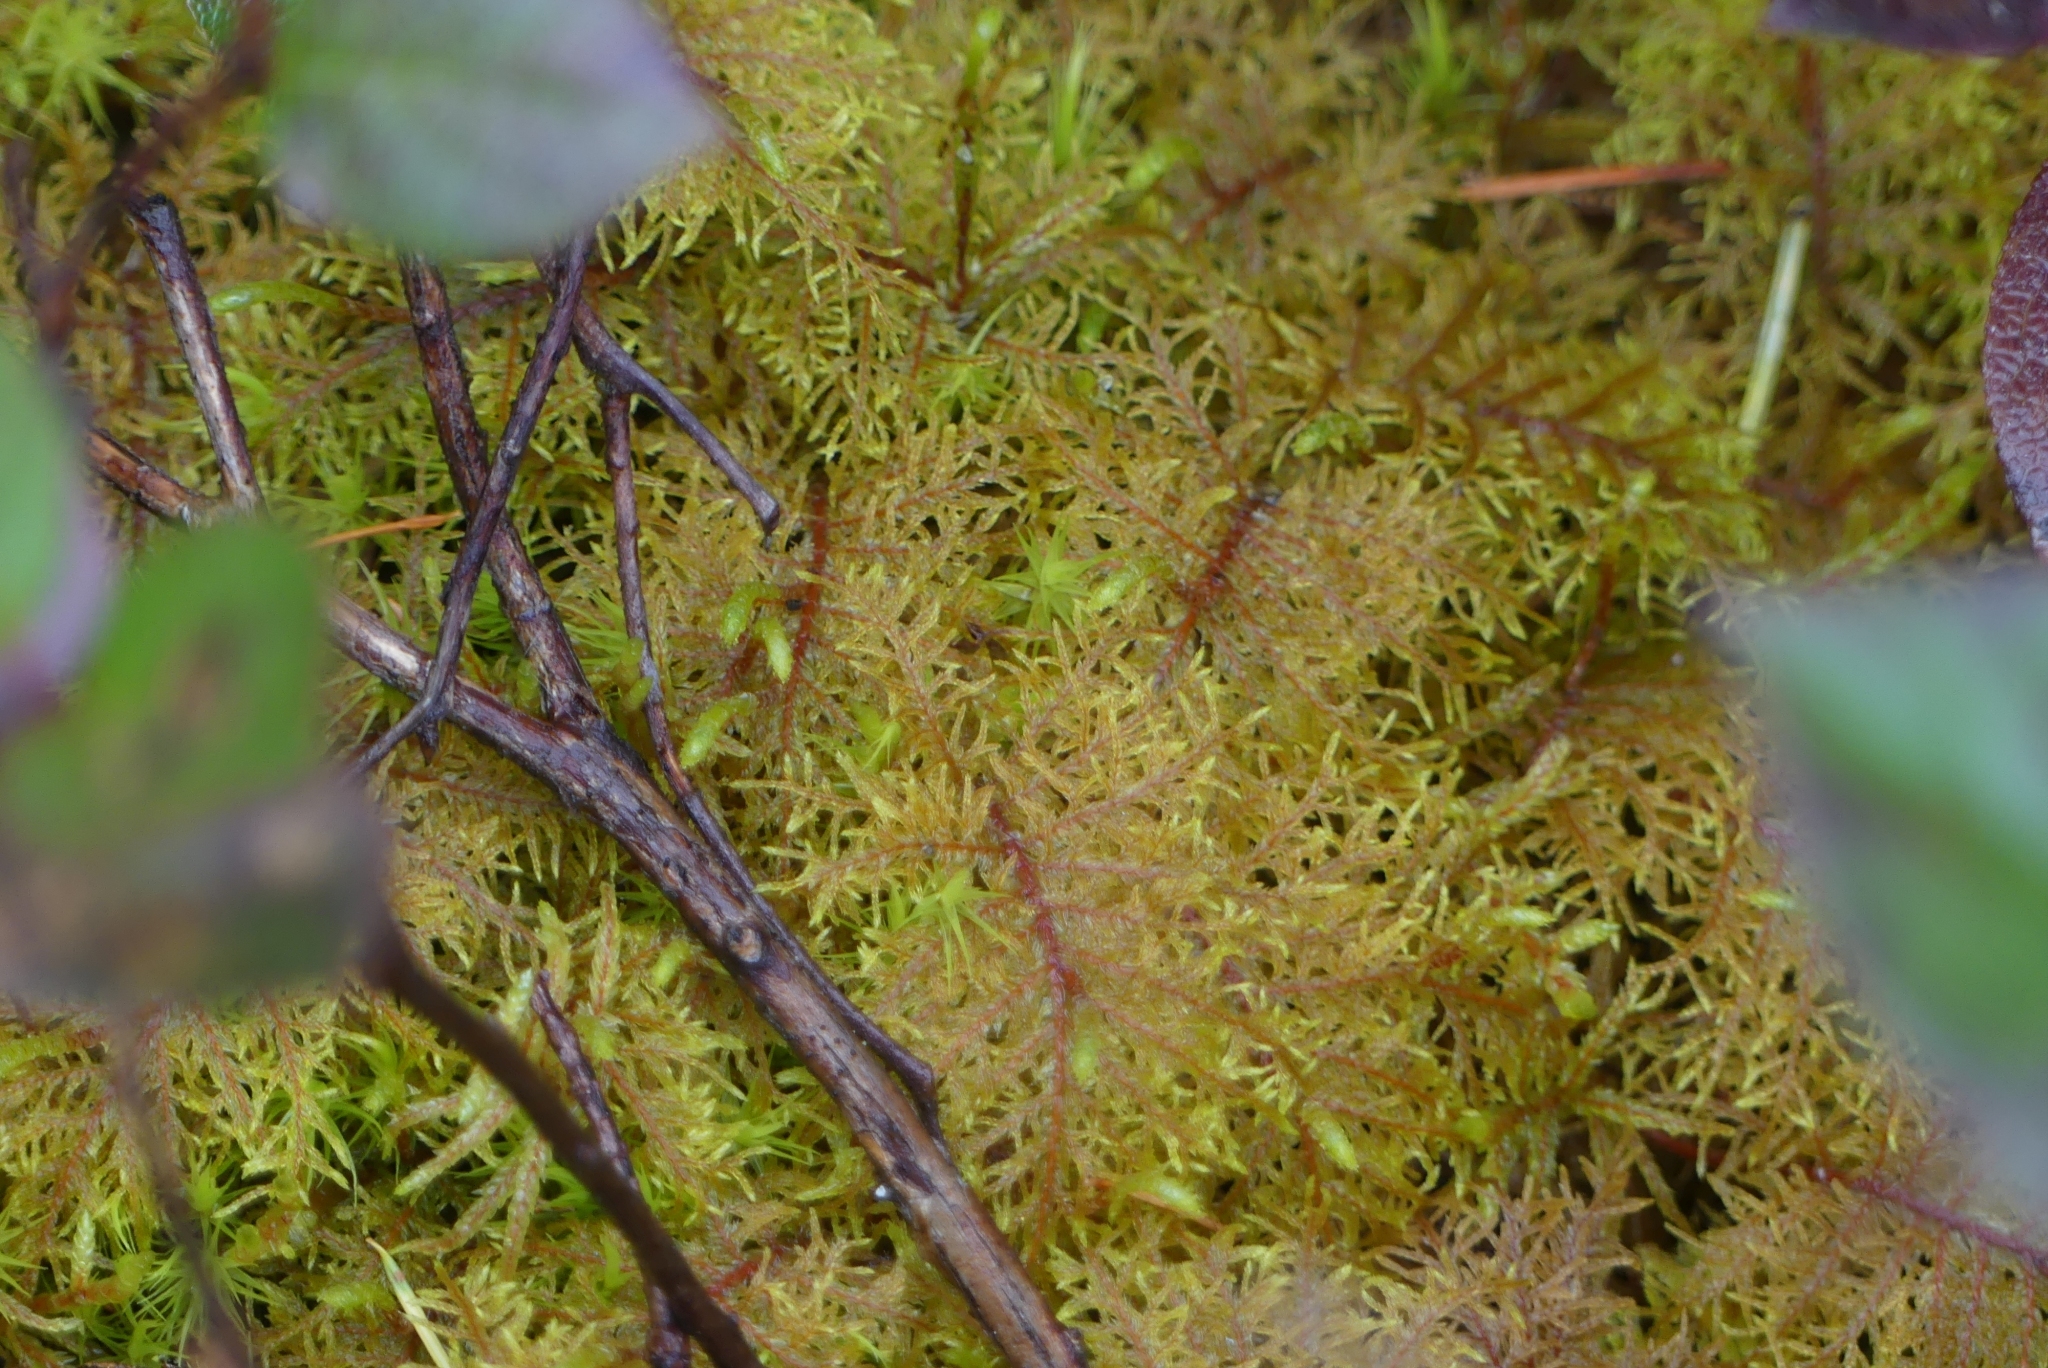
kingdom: Plantae
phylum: Bryophyta
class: Bryopsida
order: Hypnales
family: Hylocomiaceae
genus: Hylocomium
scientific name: Hylocomium splendens
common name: Stairstep moss
